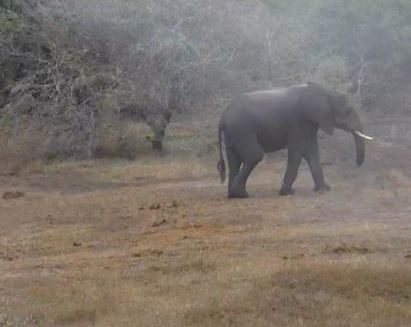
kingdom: Animalia
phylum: Chordata
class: Mammalia
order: Proboscidea
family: Elephantidae
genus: Loxodonta
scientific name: Loxodonta africana
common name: African elephant
